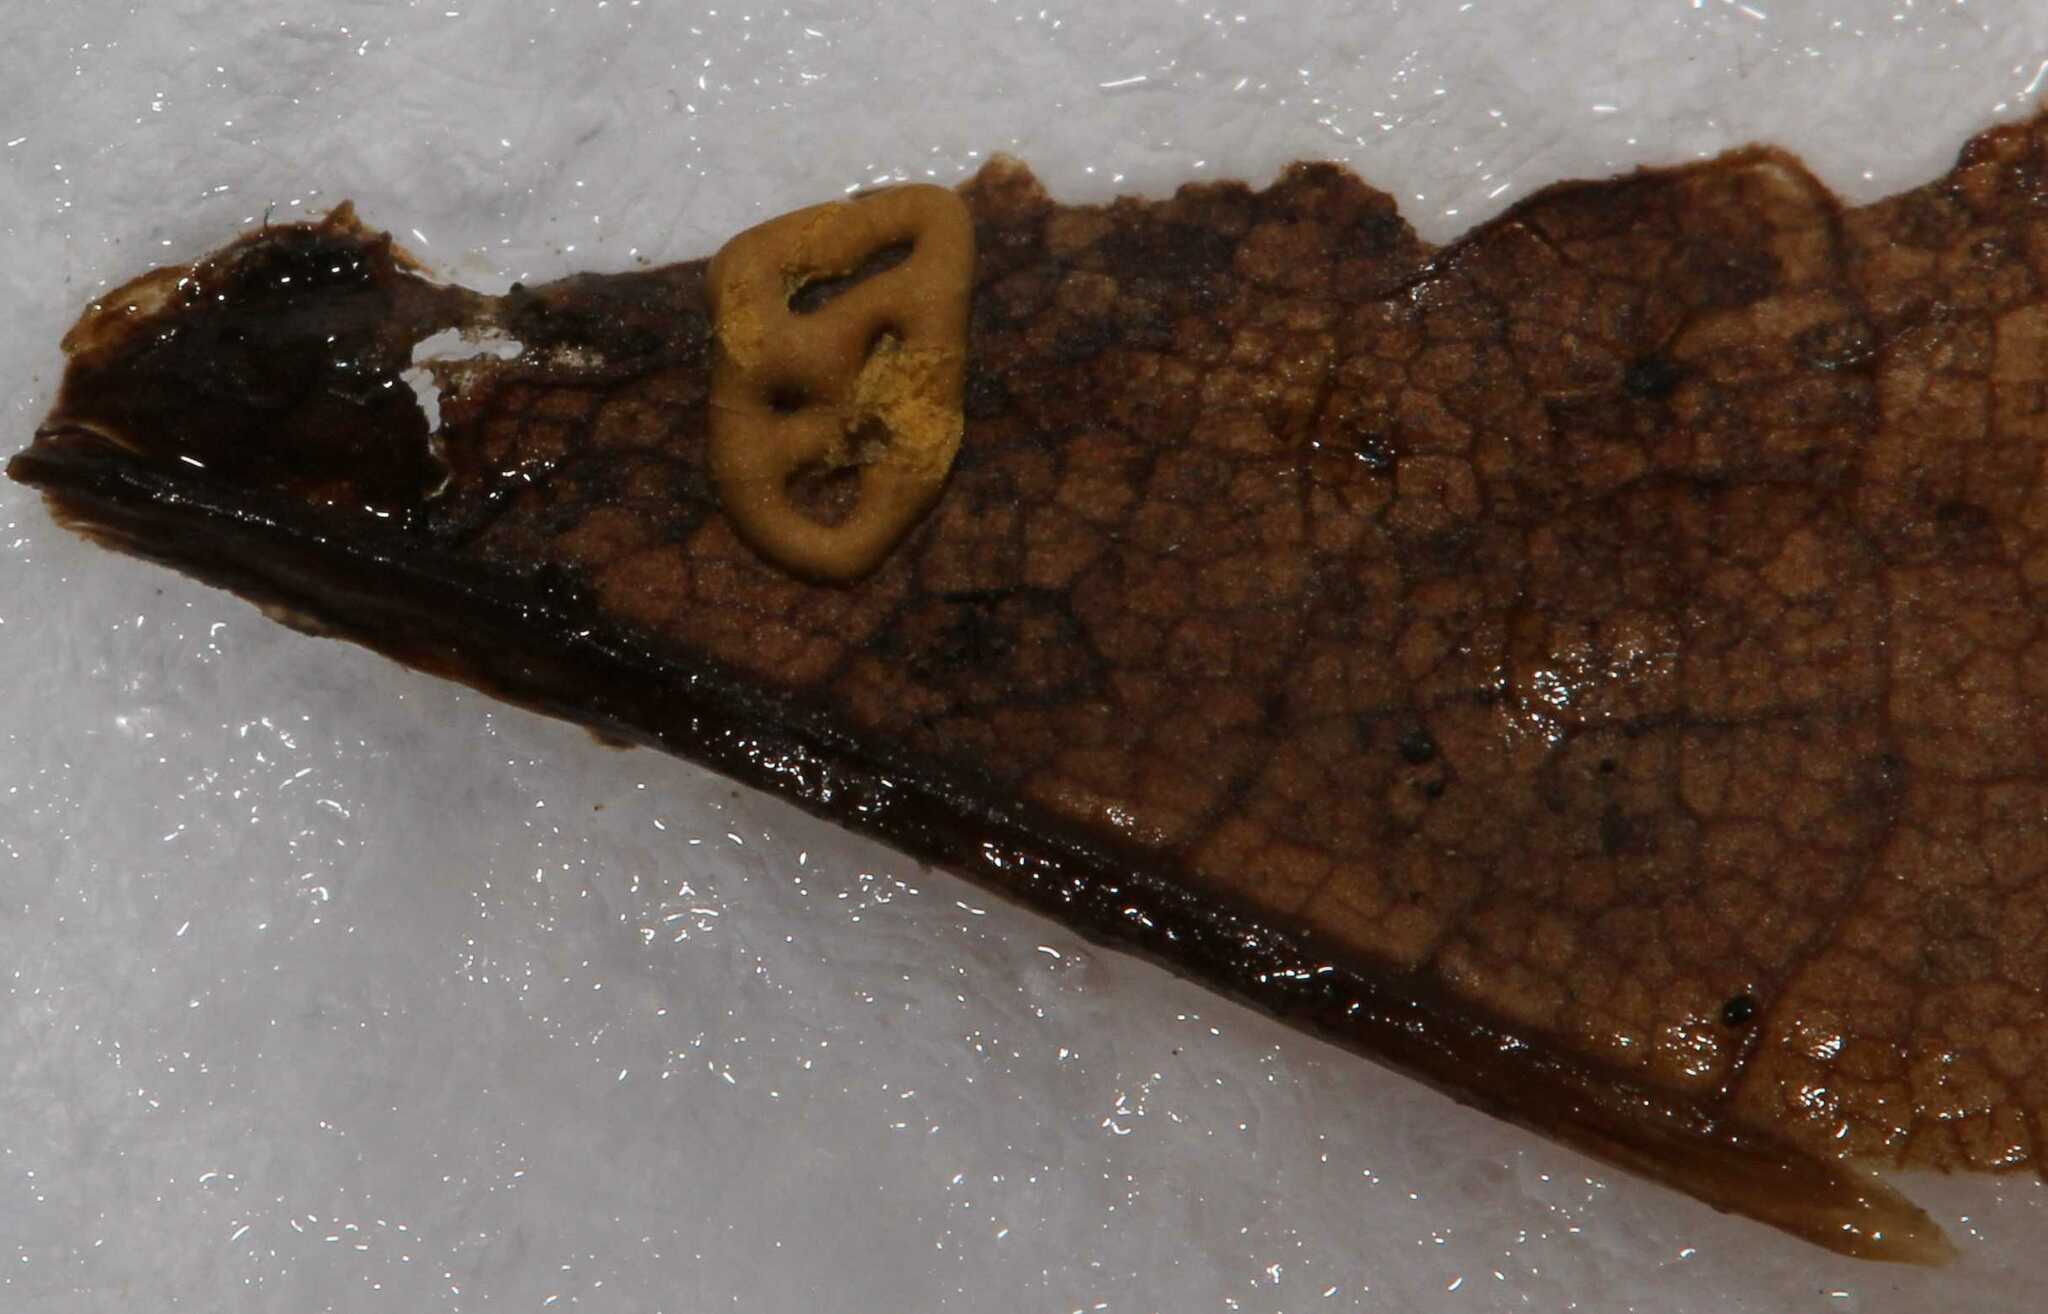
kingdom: Protozoa
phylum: Mycetozoa
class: Myxomycetes
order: Trichiales
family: Arcyriaceae
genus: Hemitrichia
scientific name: Hemitrichia serpula
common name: Pretzel slime mold
